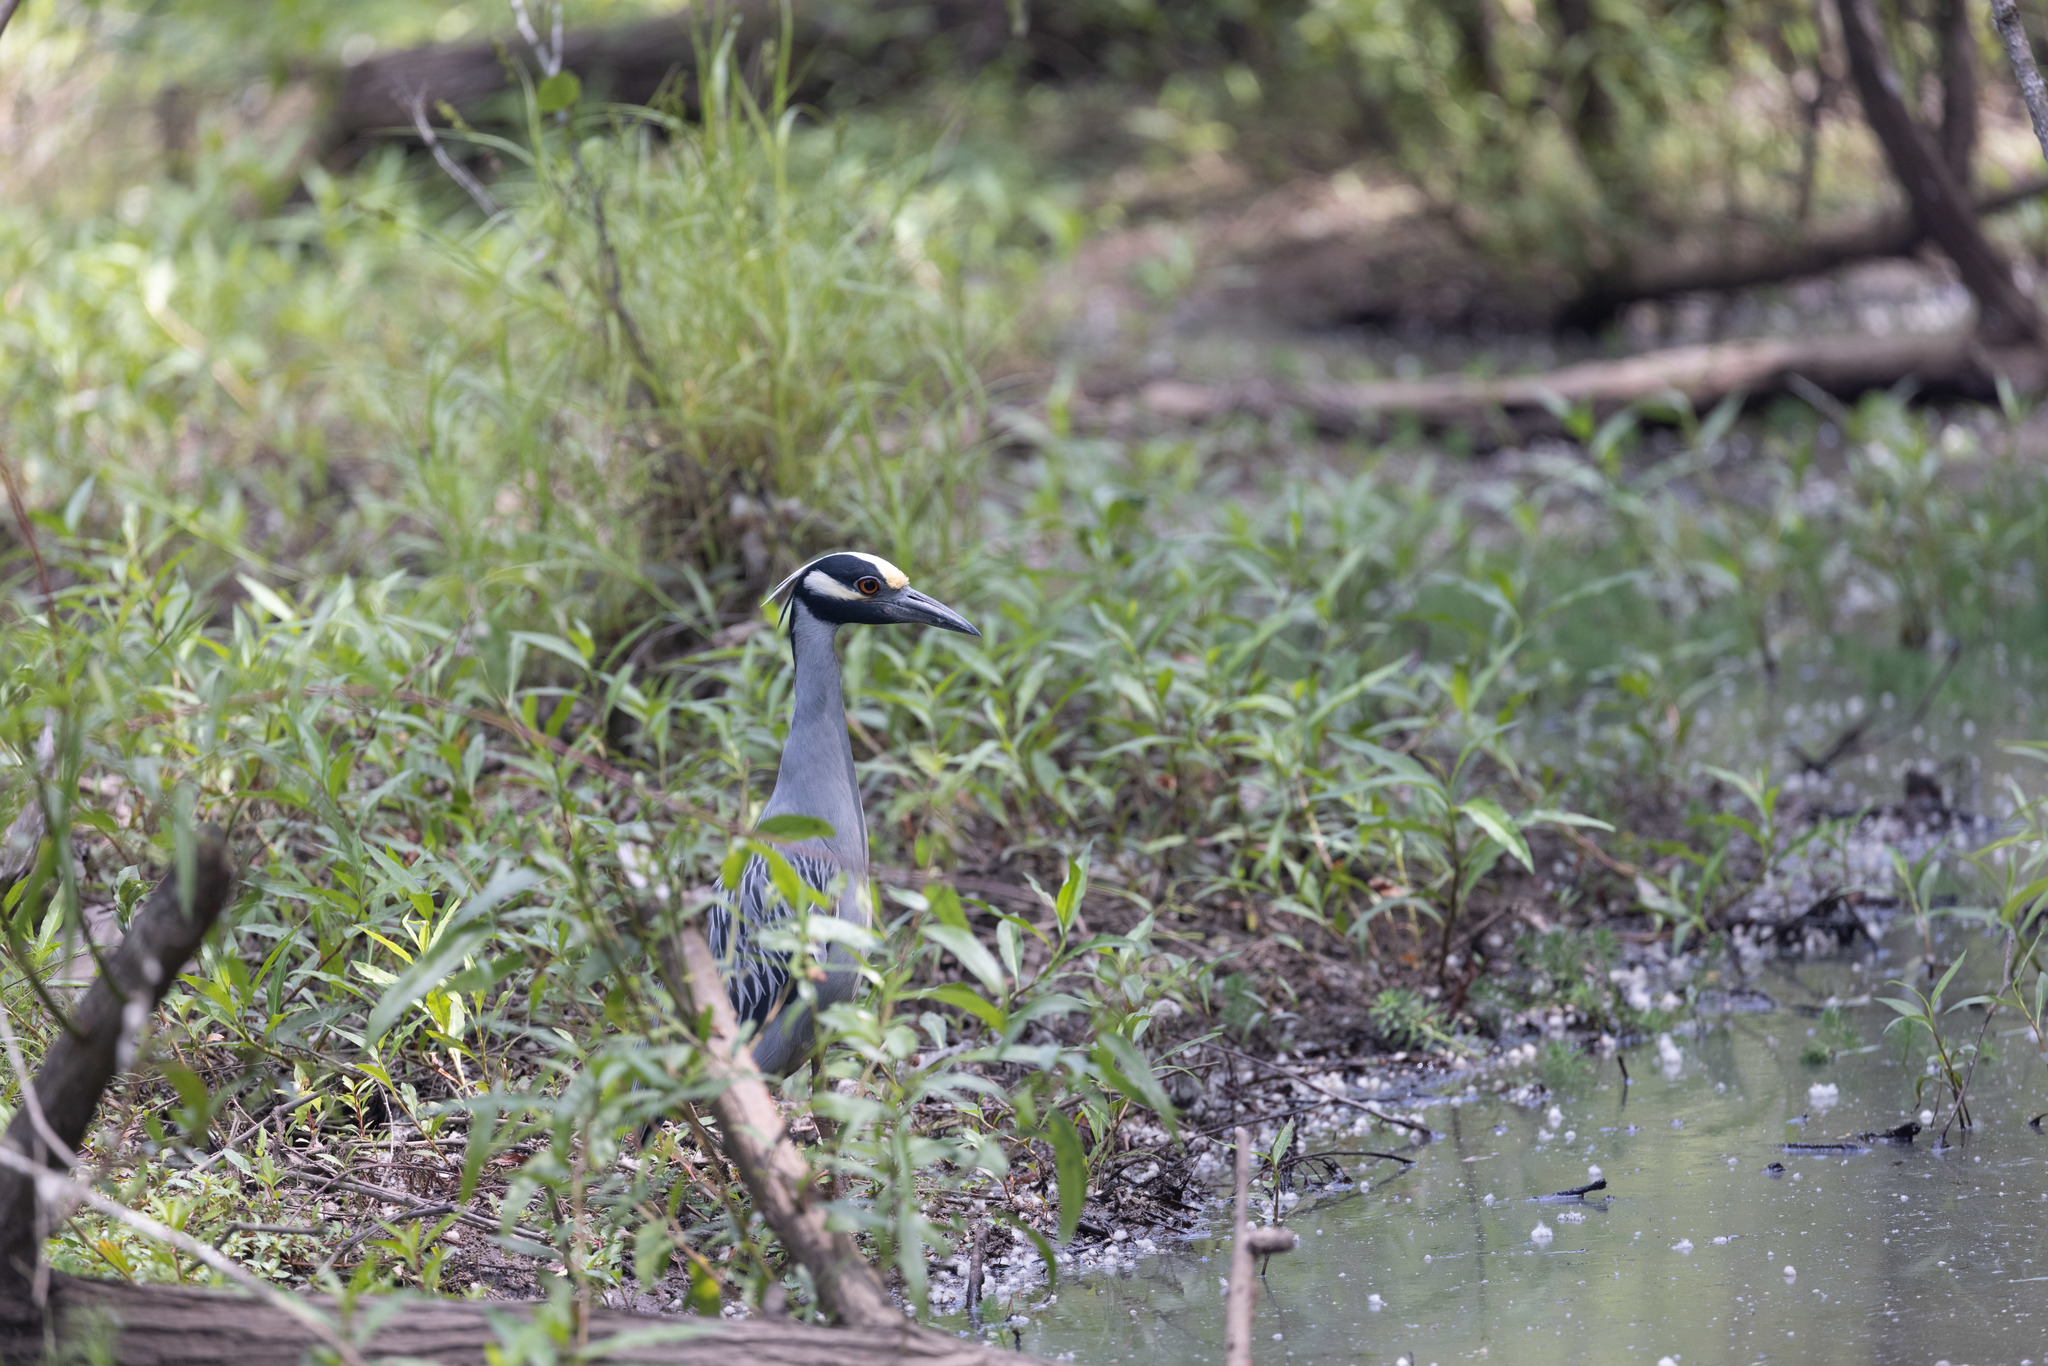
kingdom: Animalia
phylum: Chordata
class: Aves
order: Pelecaniformes
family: Ardeidae
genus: Nyctanassa
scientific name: Nyctanassa violacea
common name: Yellow-crowned night heron
